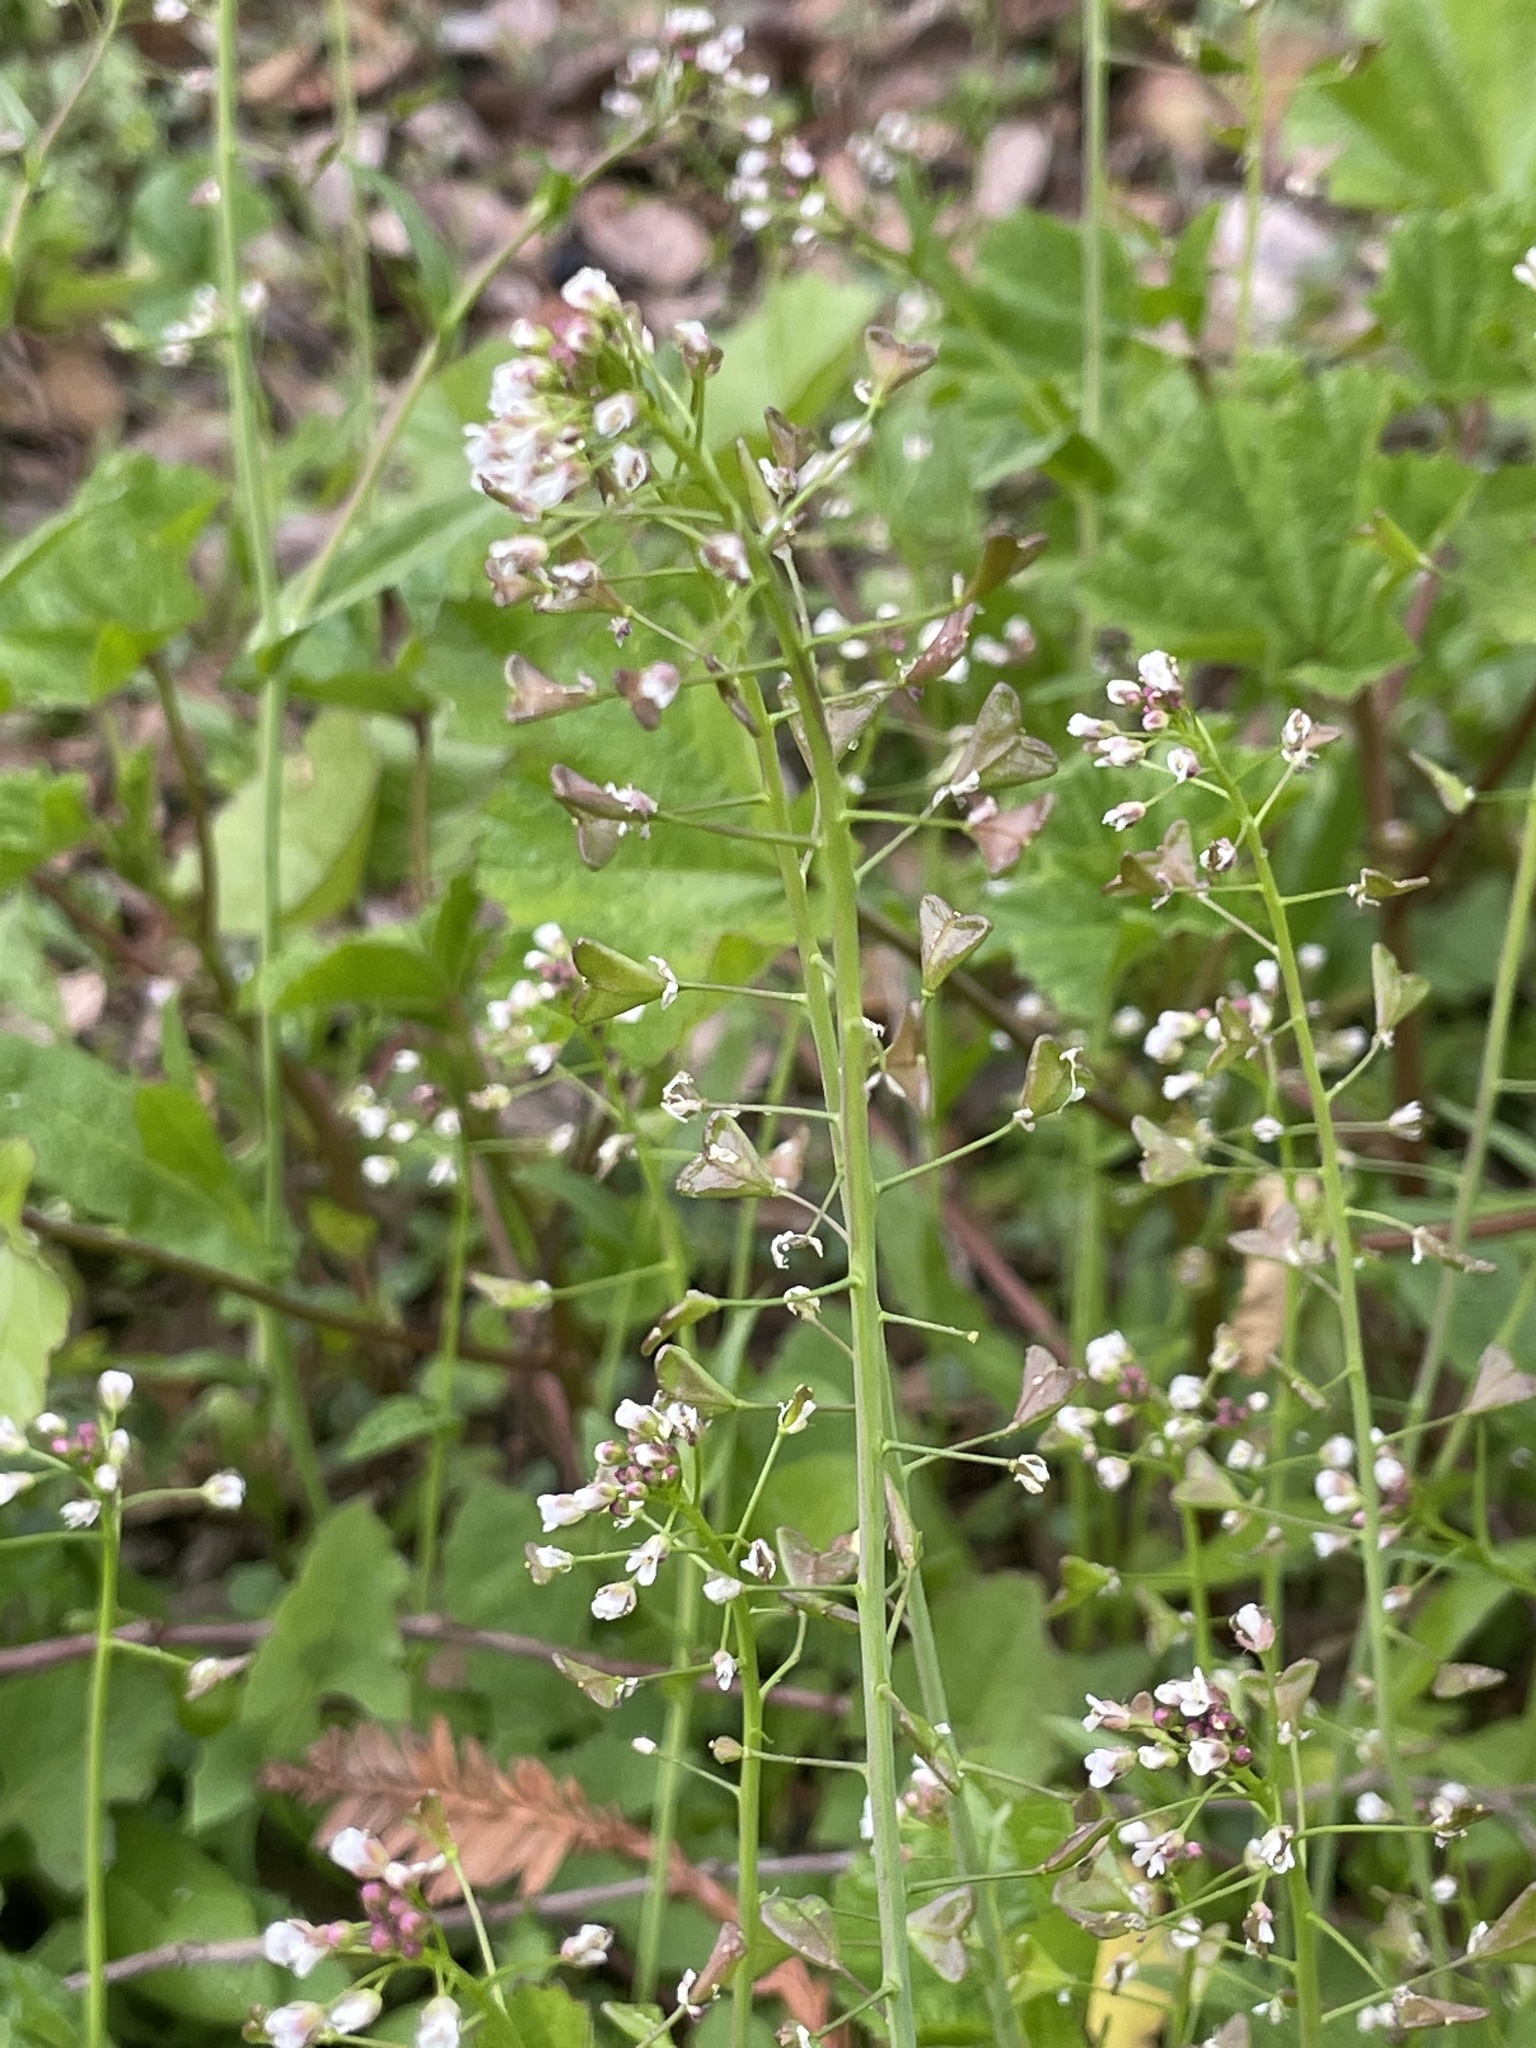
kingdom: Plantae
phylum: Tracheophyta
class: Magnoliopsida
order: Brassicales
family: Brassicaceae
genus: Capsella
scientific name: Capsella bursa-pastoris
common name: Shepherd's purse
